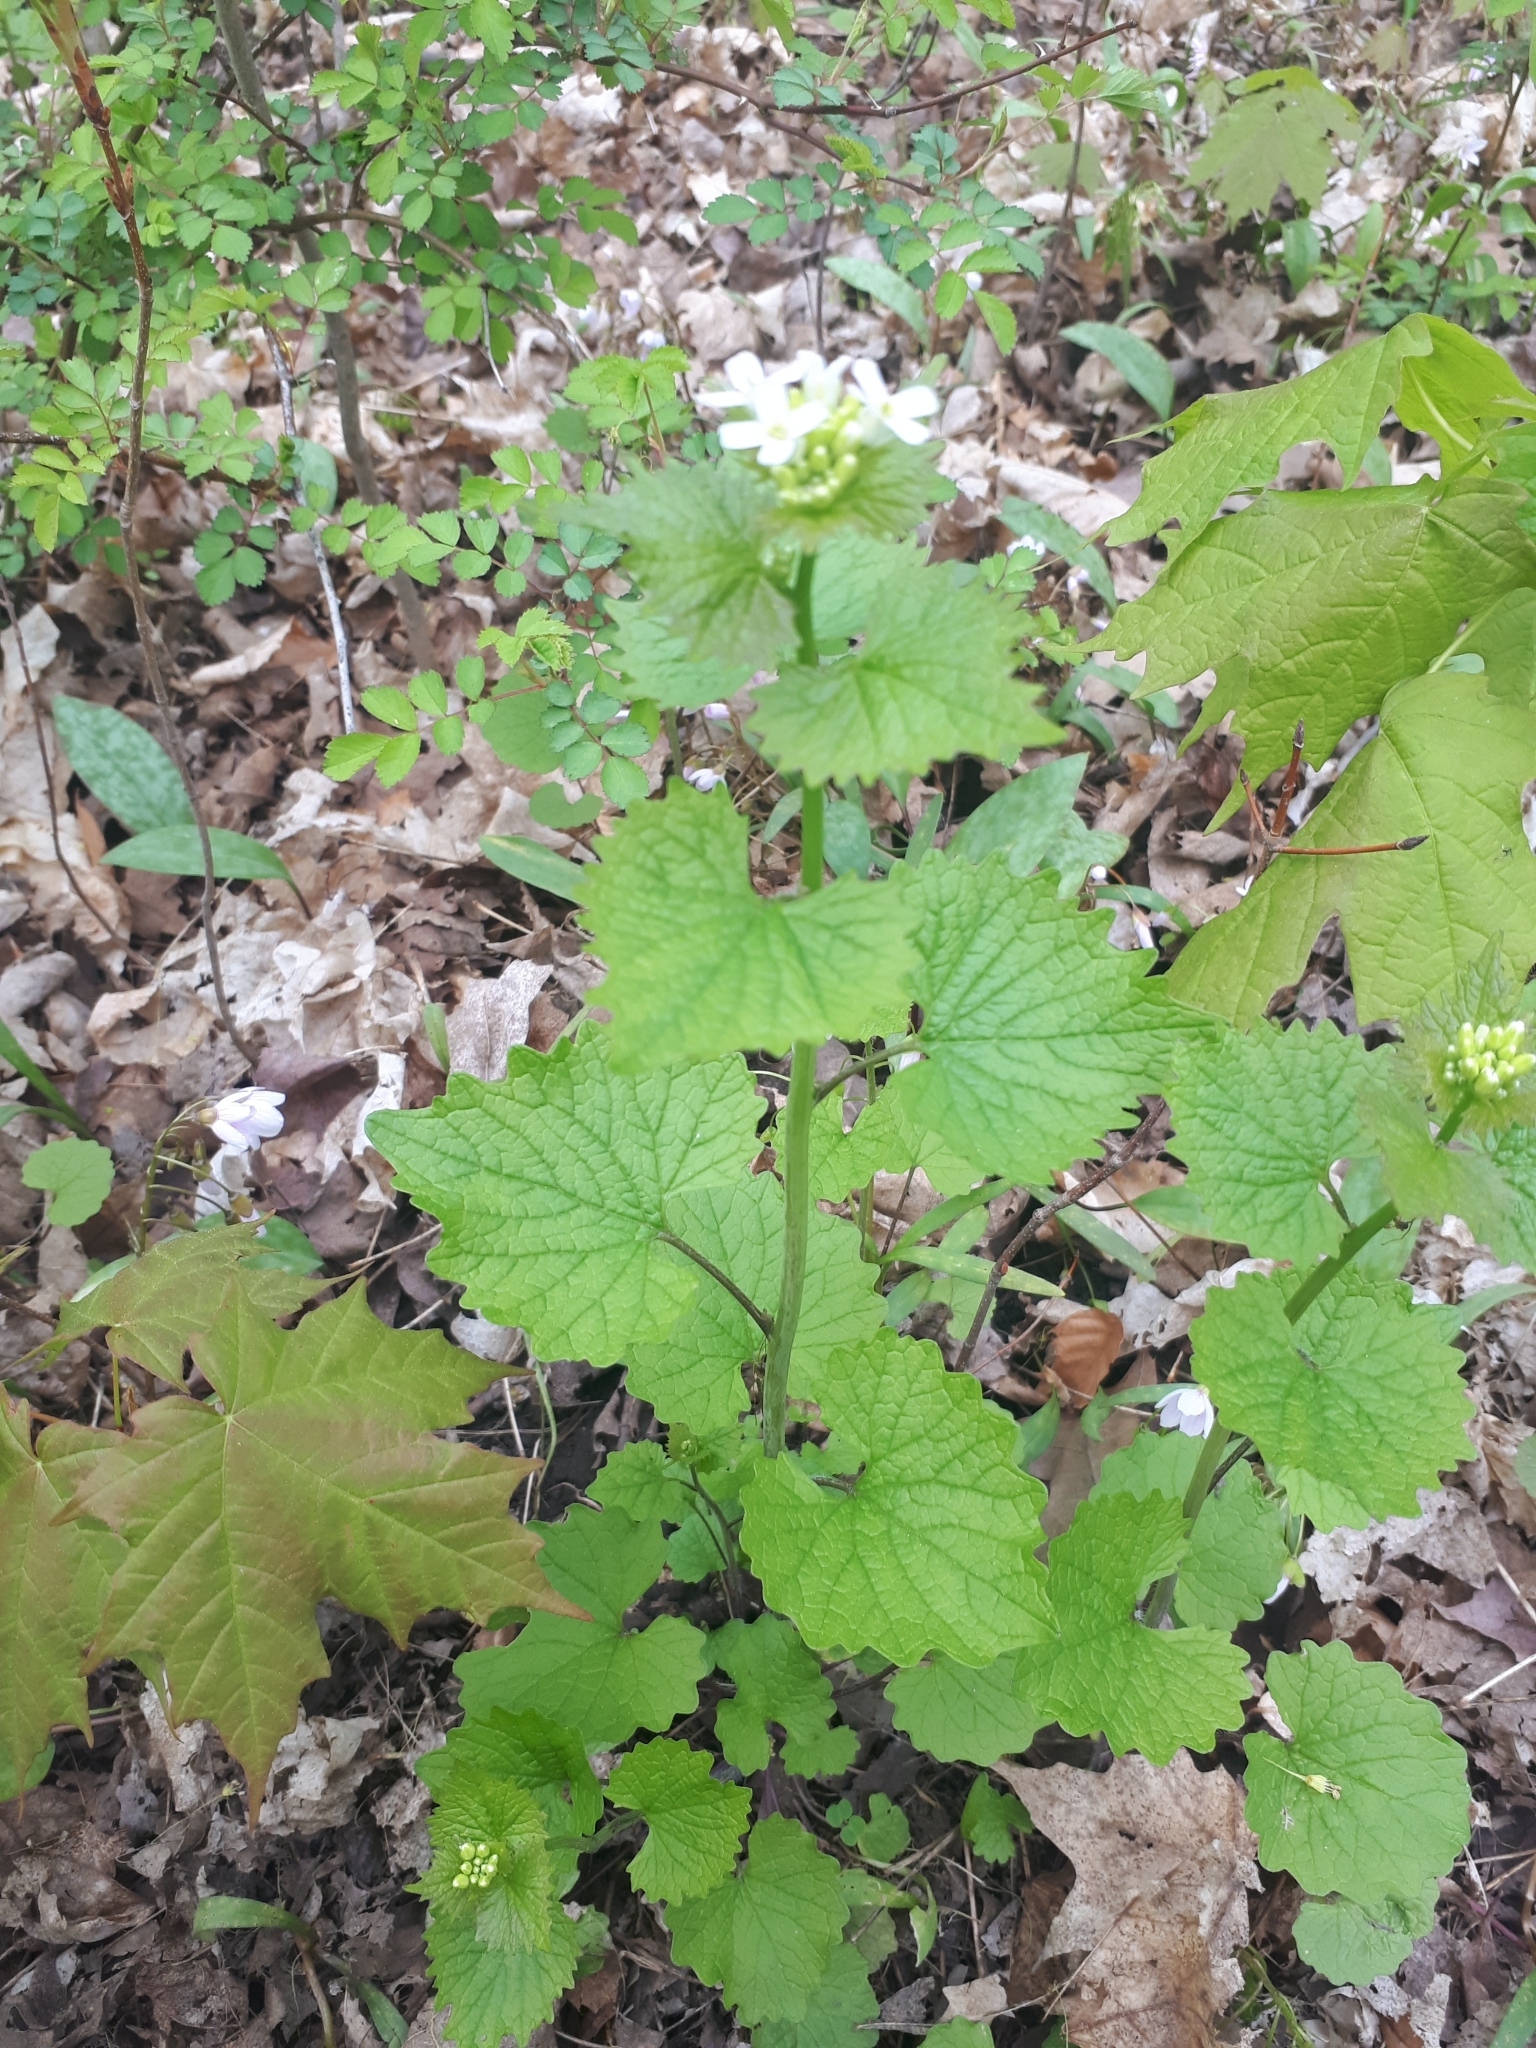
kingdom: Plantae
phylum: Tracheophyta
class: Magnoliopsida
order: Brassicales
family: Brassicaceae
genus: Alliaria
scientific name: Alliaria petiolata
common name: Garlic mustard
